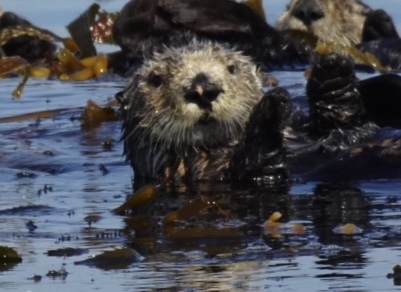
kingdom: Animalia
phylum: Chordata
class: Mammalia
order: Carnivora
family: Mustelidae
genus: Enhydra
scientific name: Enhydra lutris
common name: Sea otter
